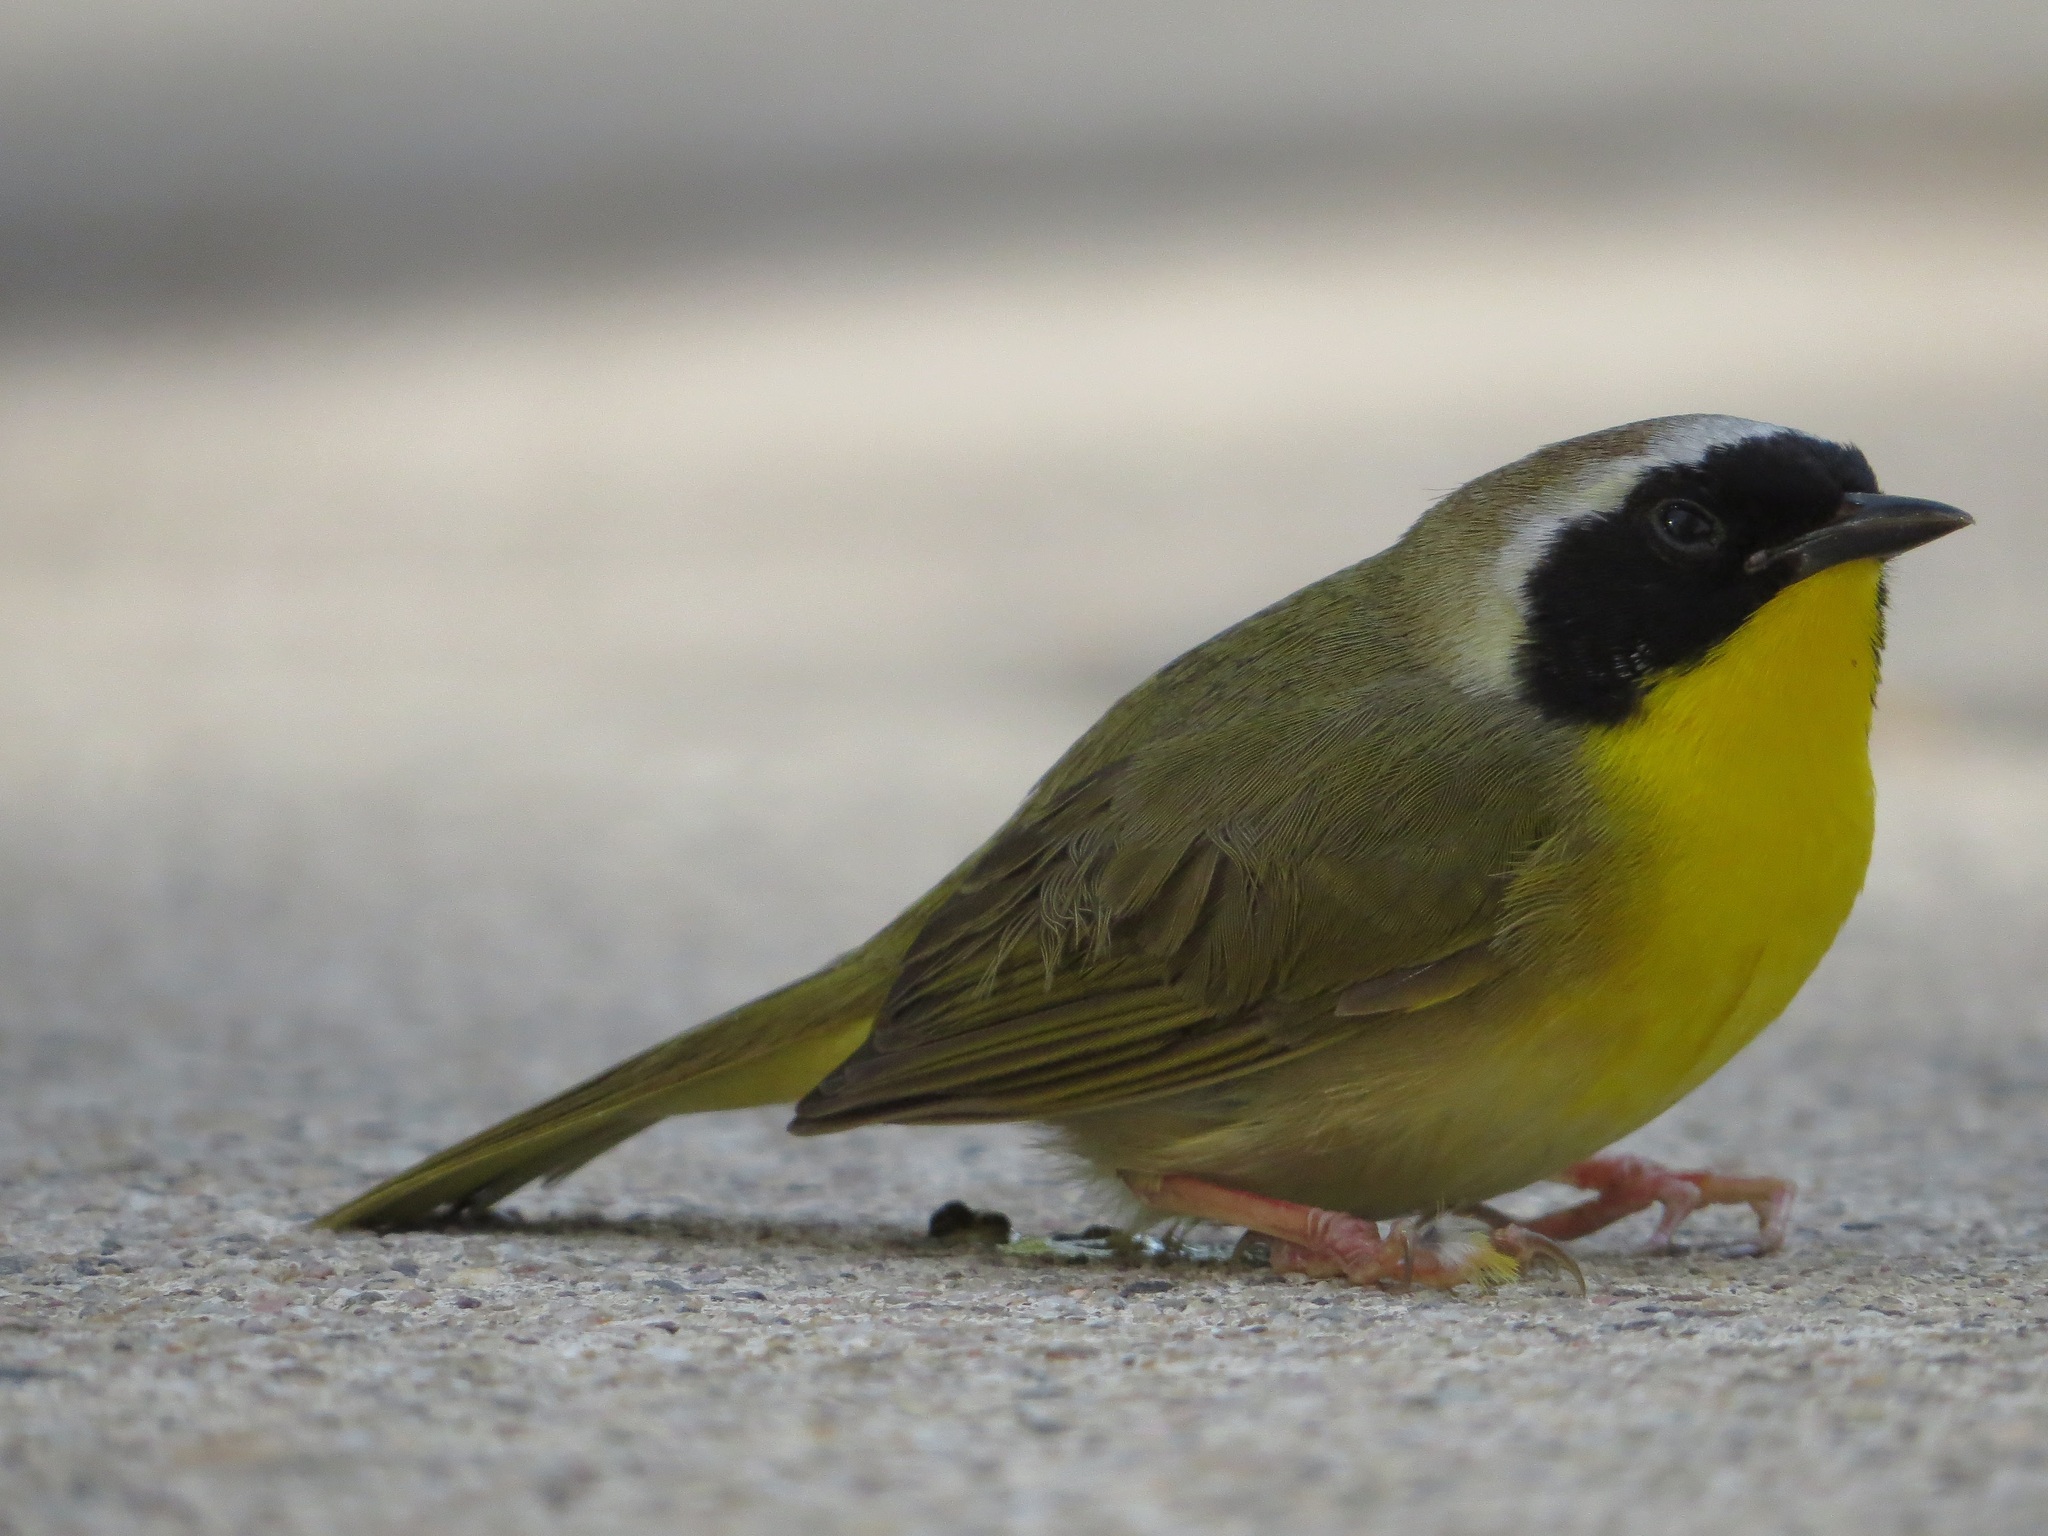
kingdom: Animalia
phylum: Chordata
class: Aves
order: Passeriformes
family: Parulidae
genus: Geothlypis
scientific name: Geothlypis trichas
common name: Common yellowthroat
